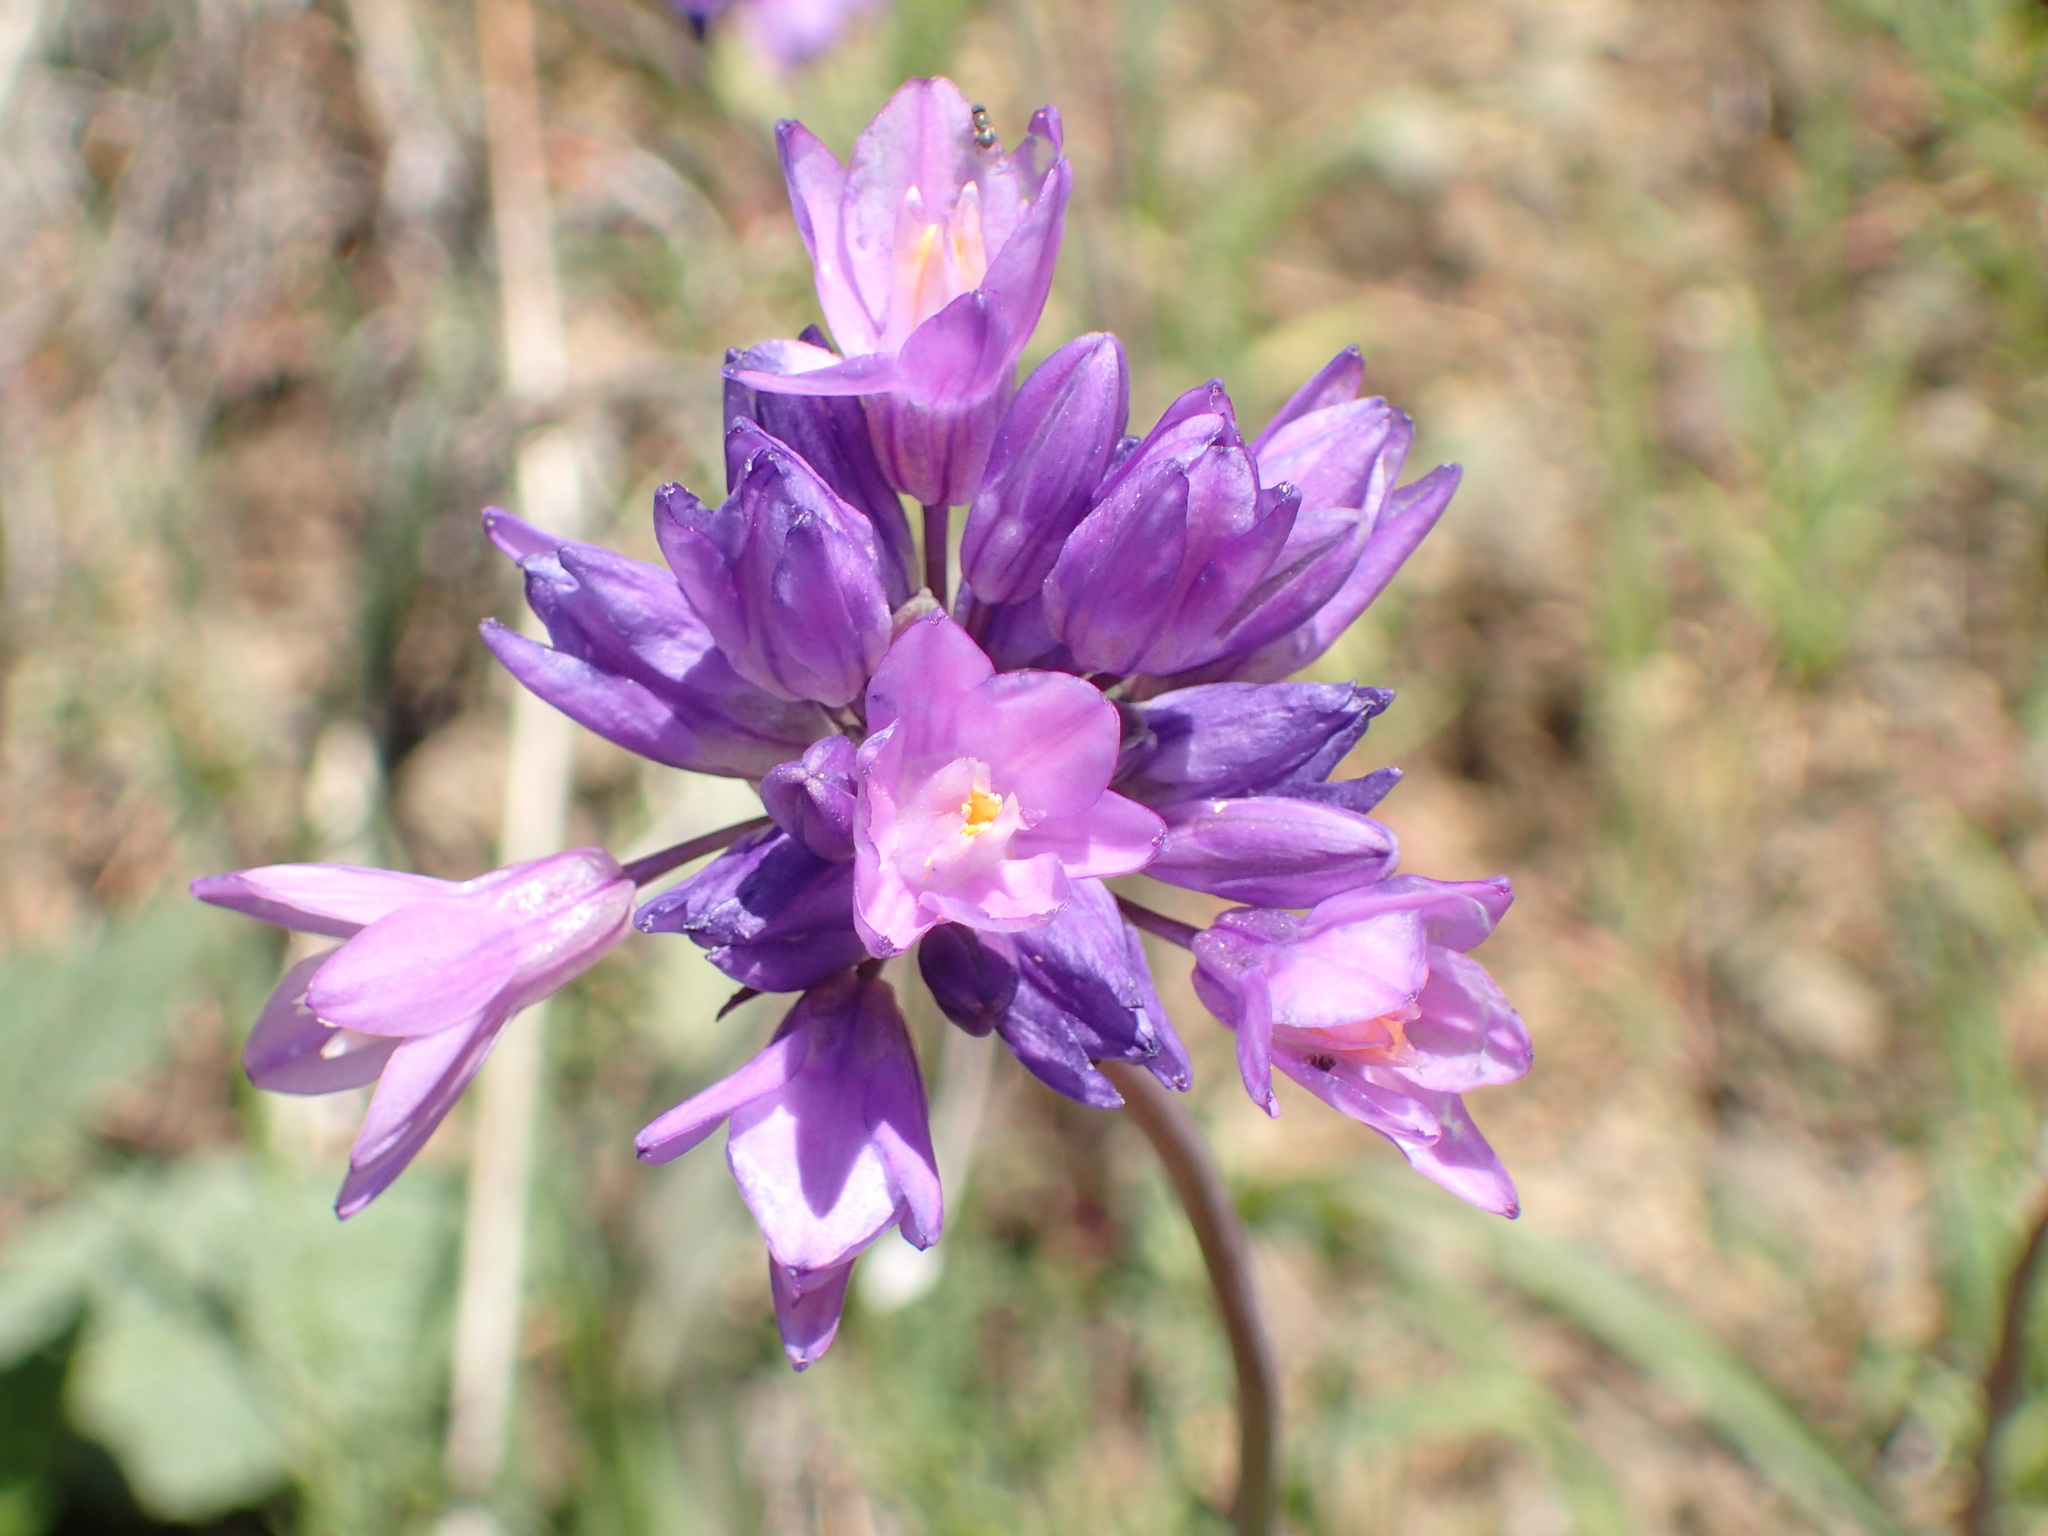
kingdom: Plantae
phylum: Tracheophyta
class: Liliopsida
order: Asparagales
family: Asparagaceae
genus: Dipterostemon
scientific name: Dipterostemon capitatus
